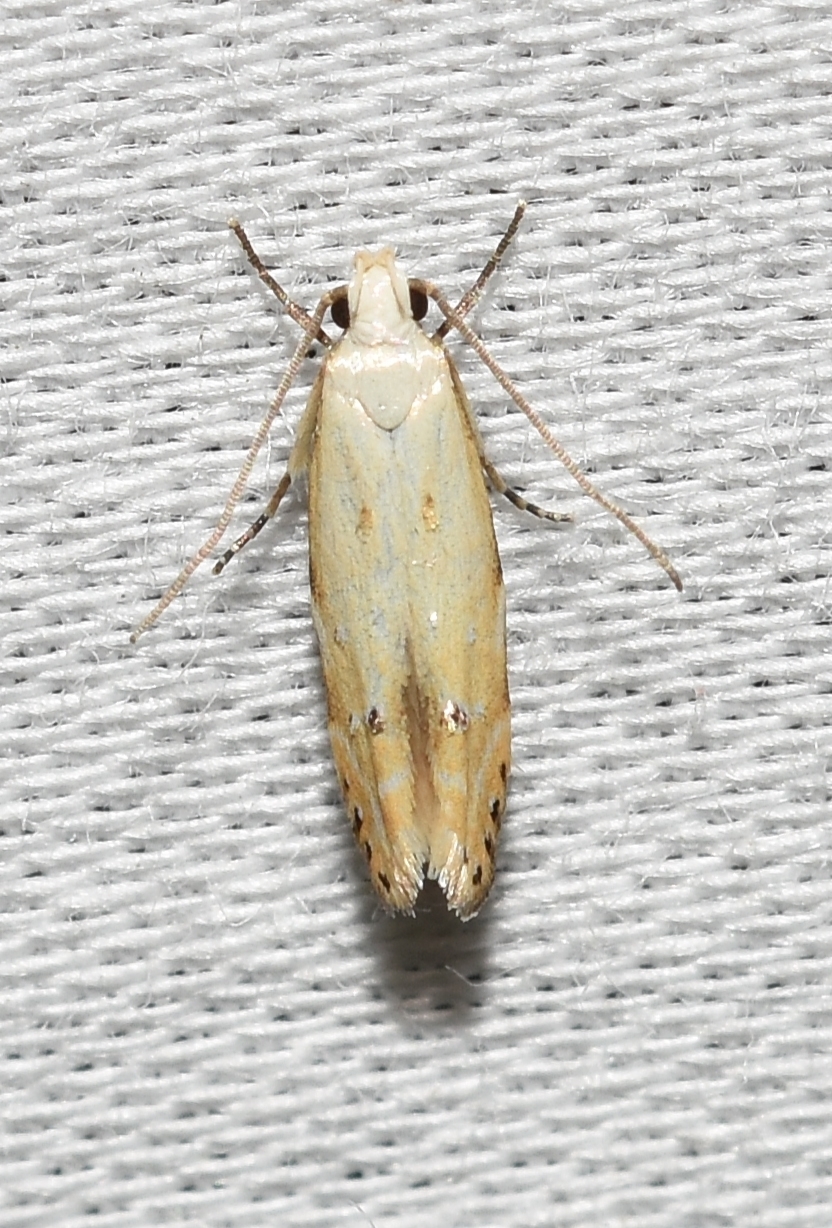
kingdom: Animalia
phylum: Arthropoda
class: Insecta
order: Lepidoptera
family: Gelechiidae
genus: Coleotechnites
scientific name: Coleotechnites variiella
